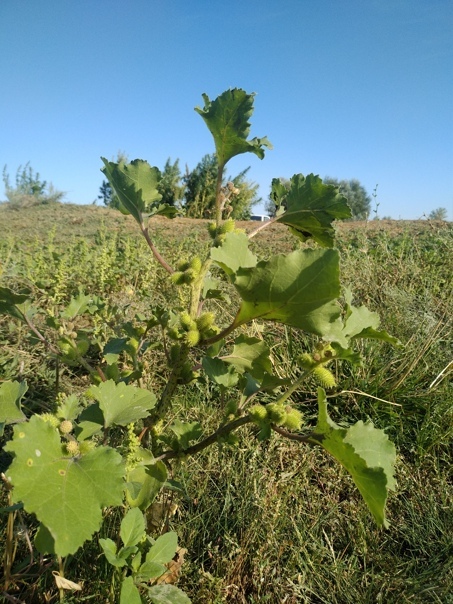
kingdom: Plantae
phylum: Tracheophyta
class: Magnoliopsida
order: Asterales
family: Asteraceae
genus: Xanthium
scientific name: Xanthium orientale
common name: Californian burr
